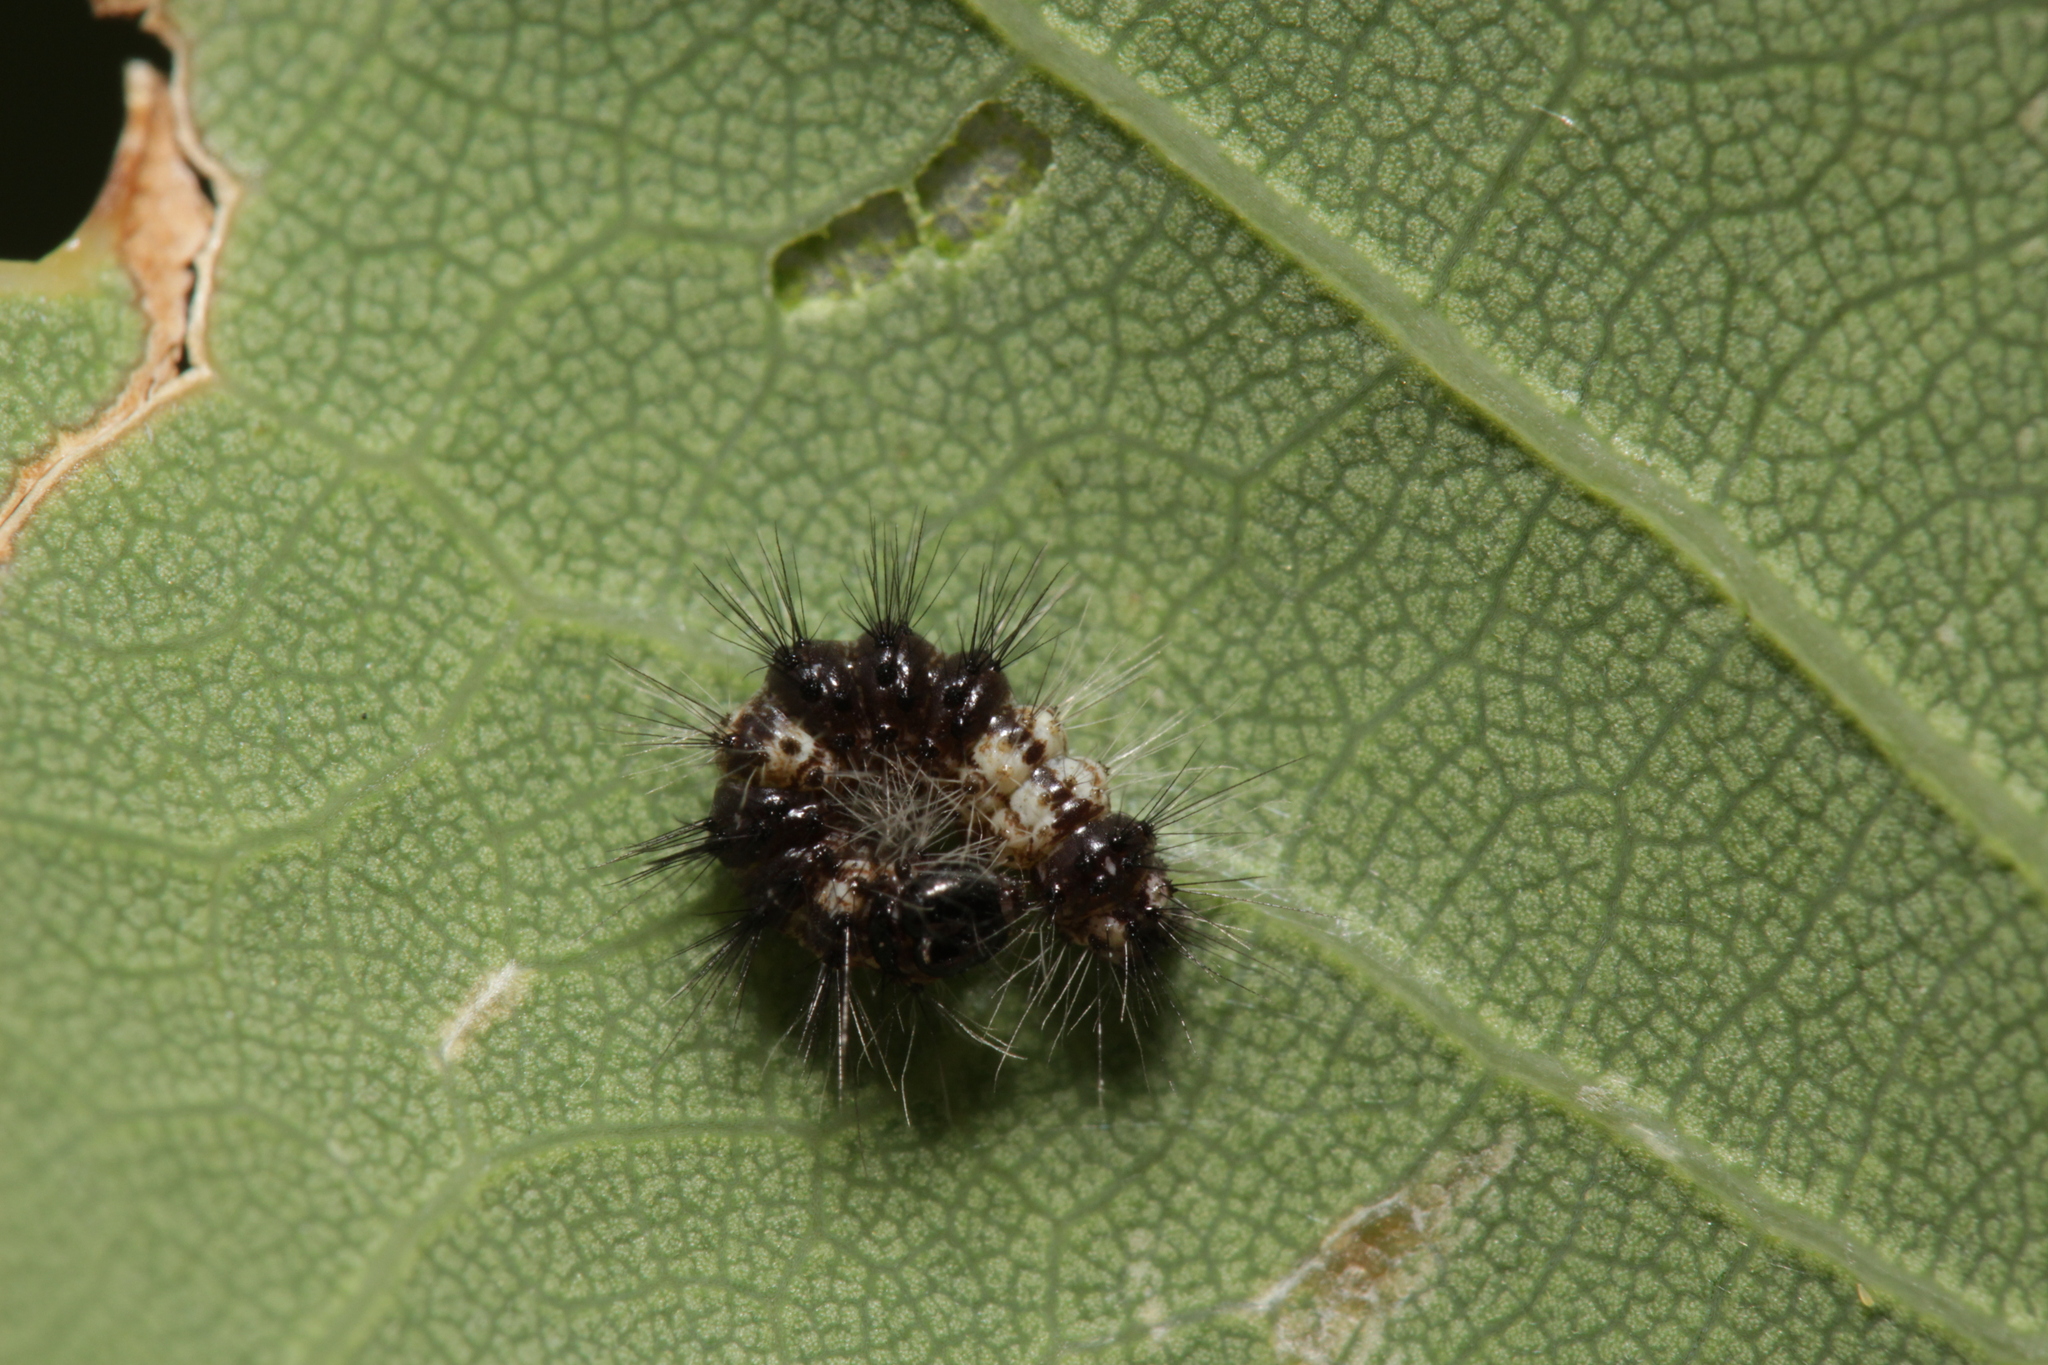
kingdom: Animalia
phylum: Arthropoda
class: Insecta
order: Lepidoptera
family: Noctuidae
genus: Acronicta
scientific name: Acronicta aceris
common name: Sycamore
